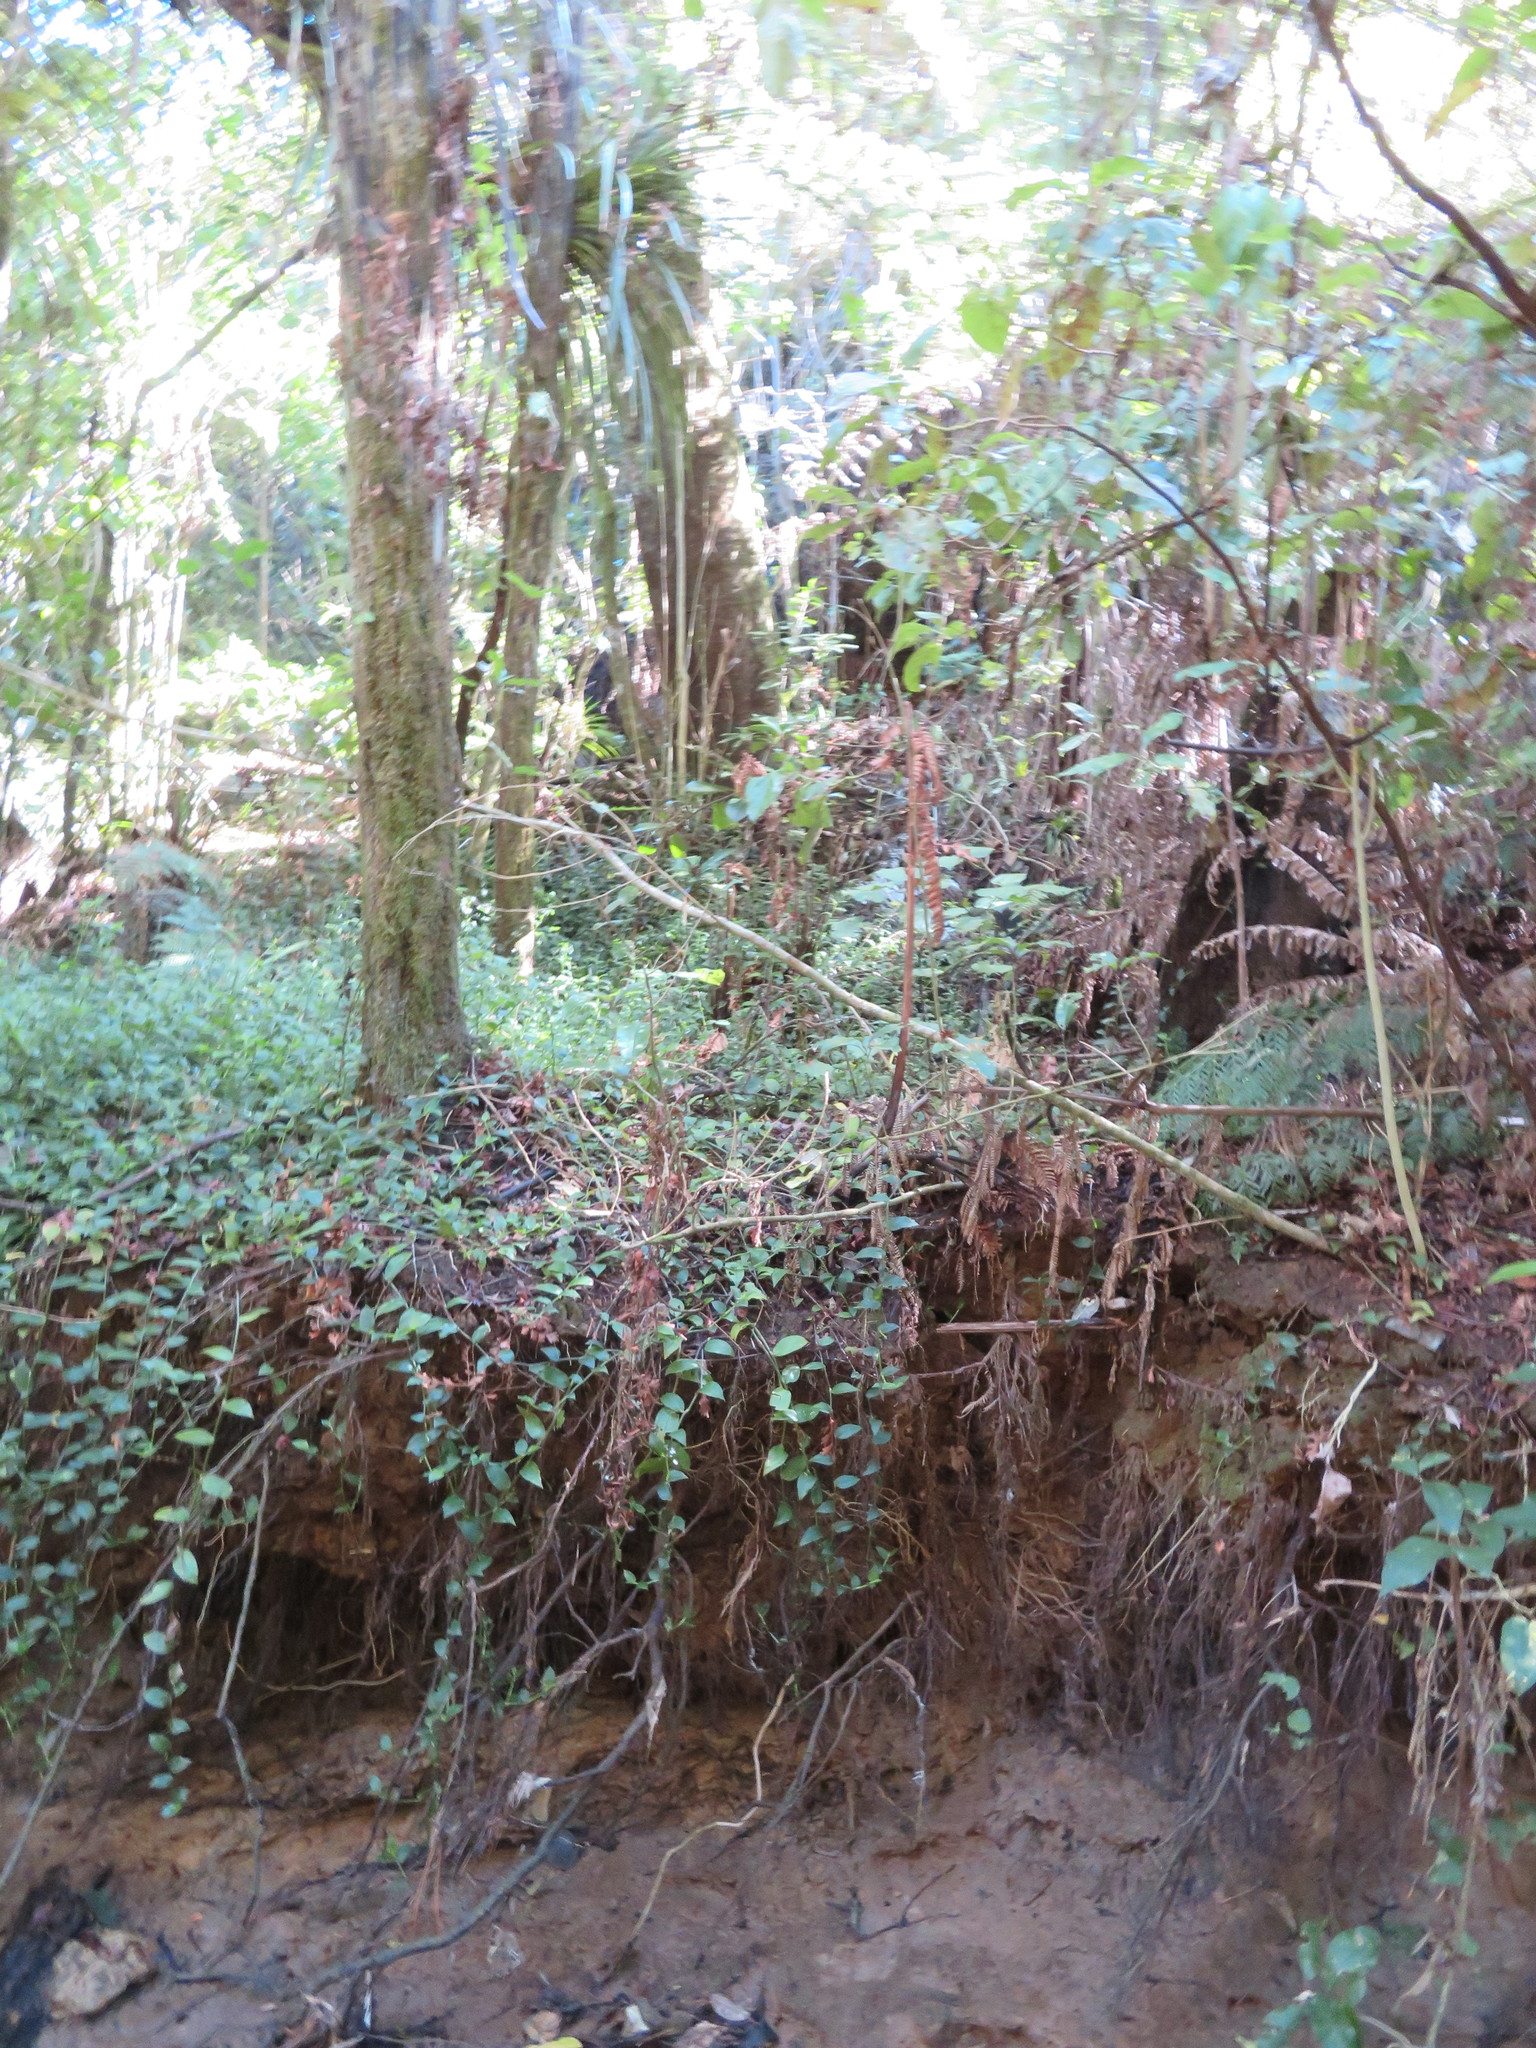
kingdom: Plantae
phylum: Tracheophyta
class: Liliopsida
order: Commelinales
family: Commelinaceae
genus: Tradescantia
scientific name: Tradescantia fluminensis
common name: Wandering-jew
